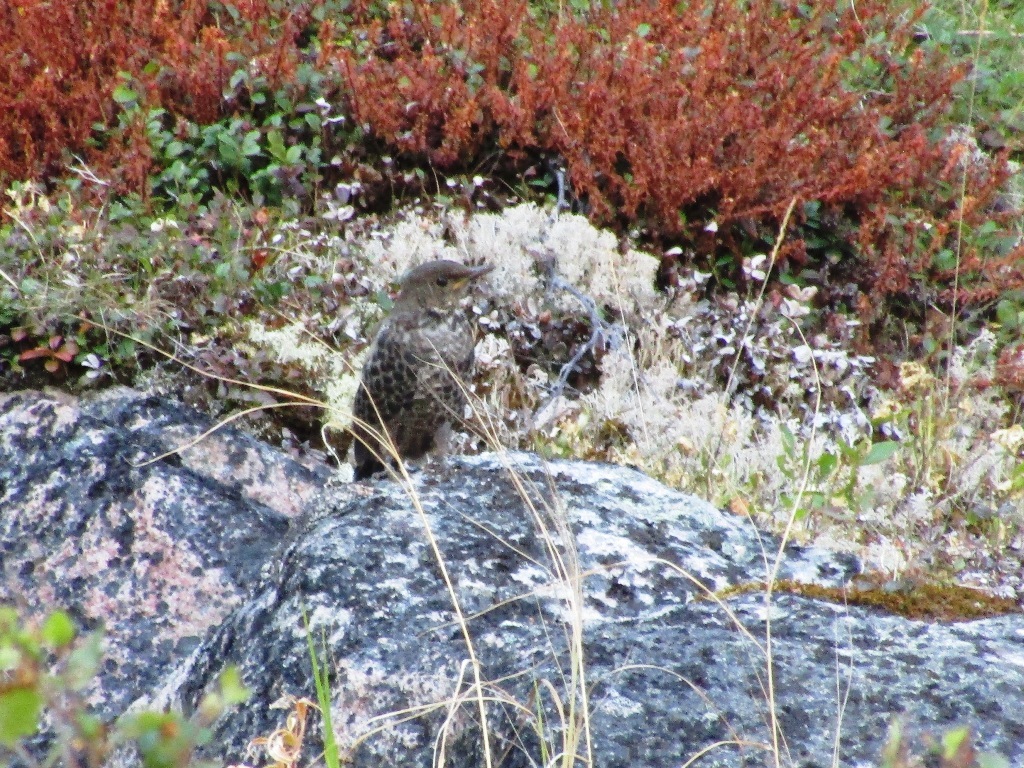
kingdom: Animalia
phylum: Chordata
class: Aves
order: Passeriformes
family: Turdidae
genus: Turdus
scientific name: Turdus torquatus
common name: Ring ouzel
